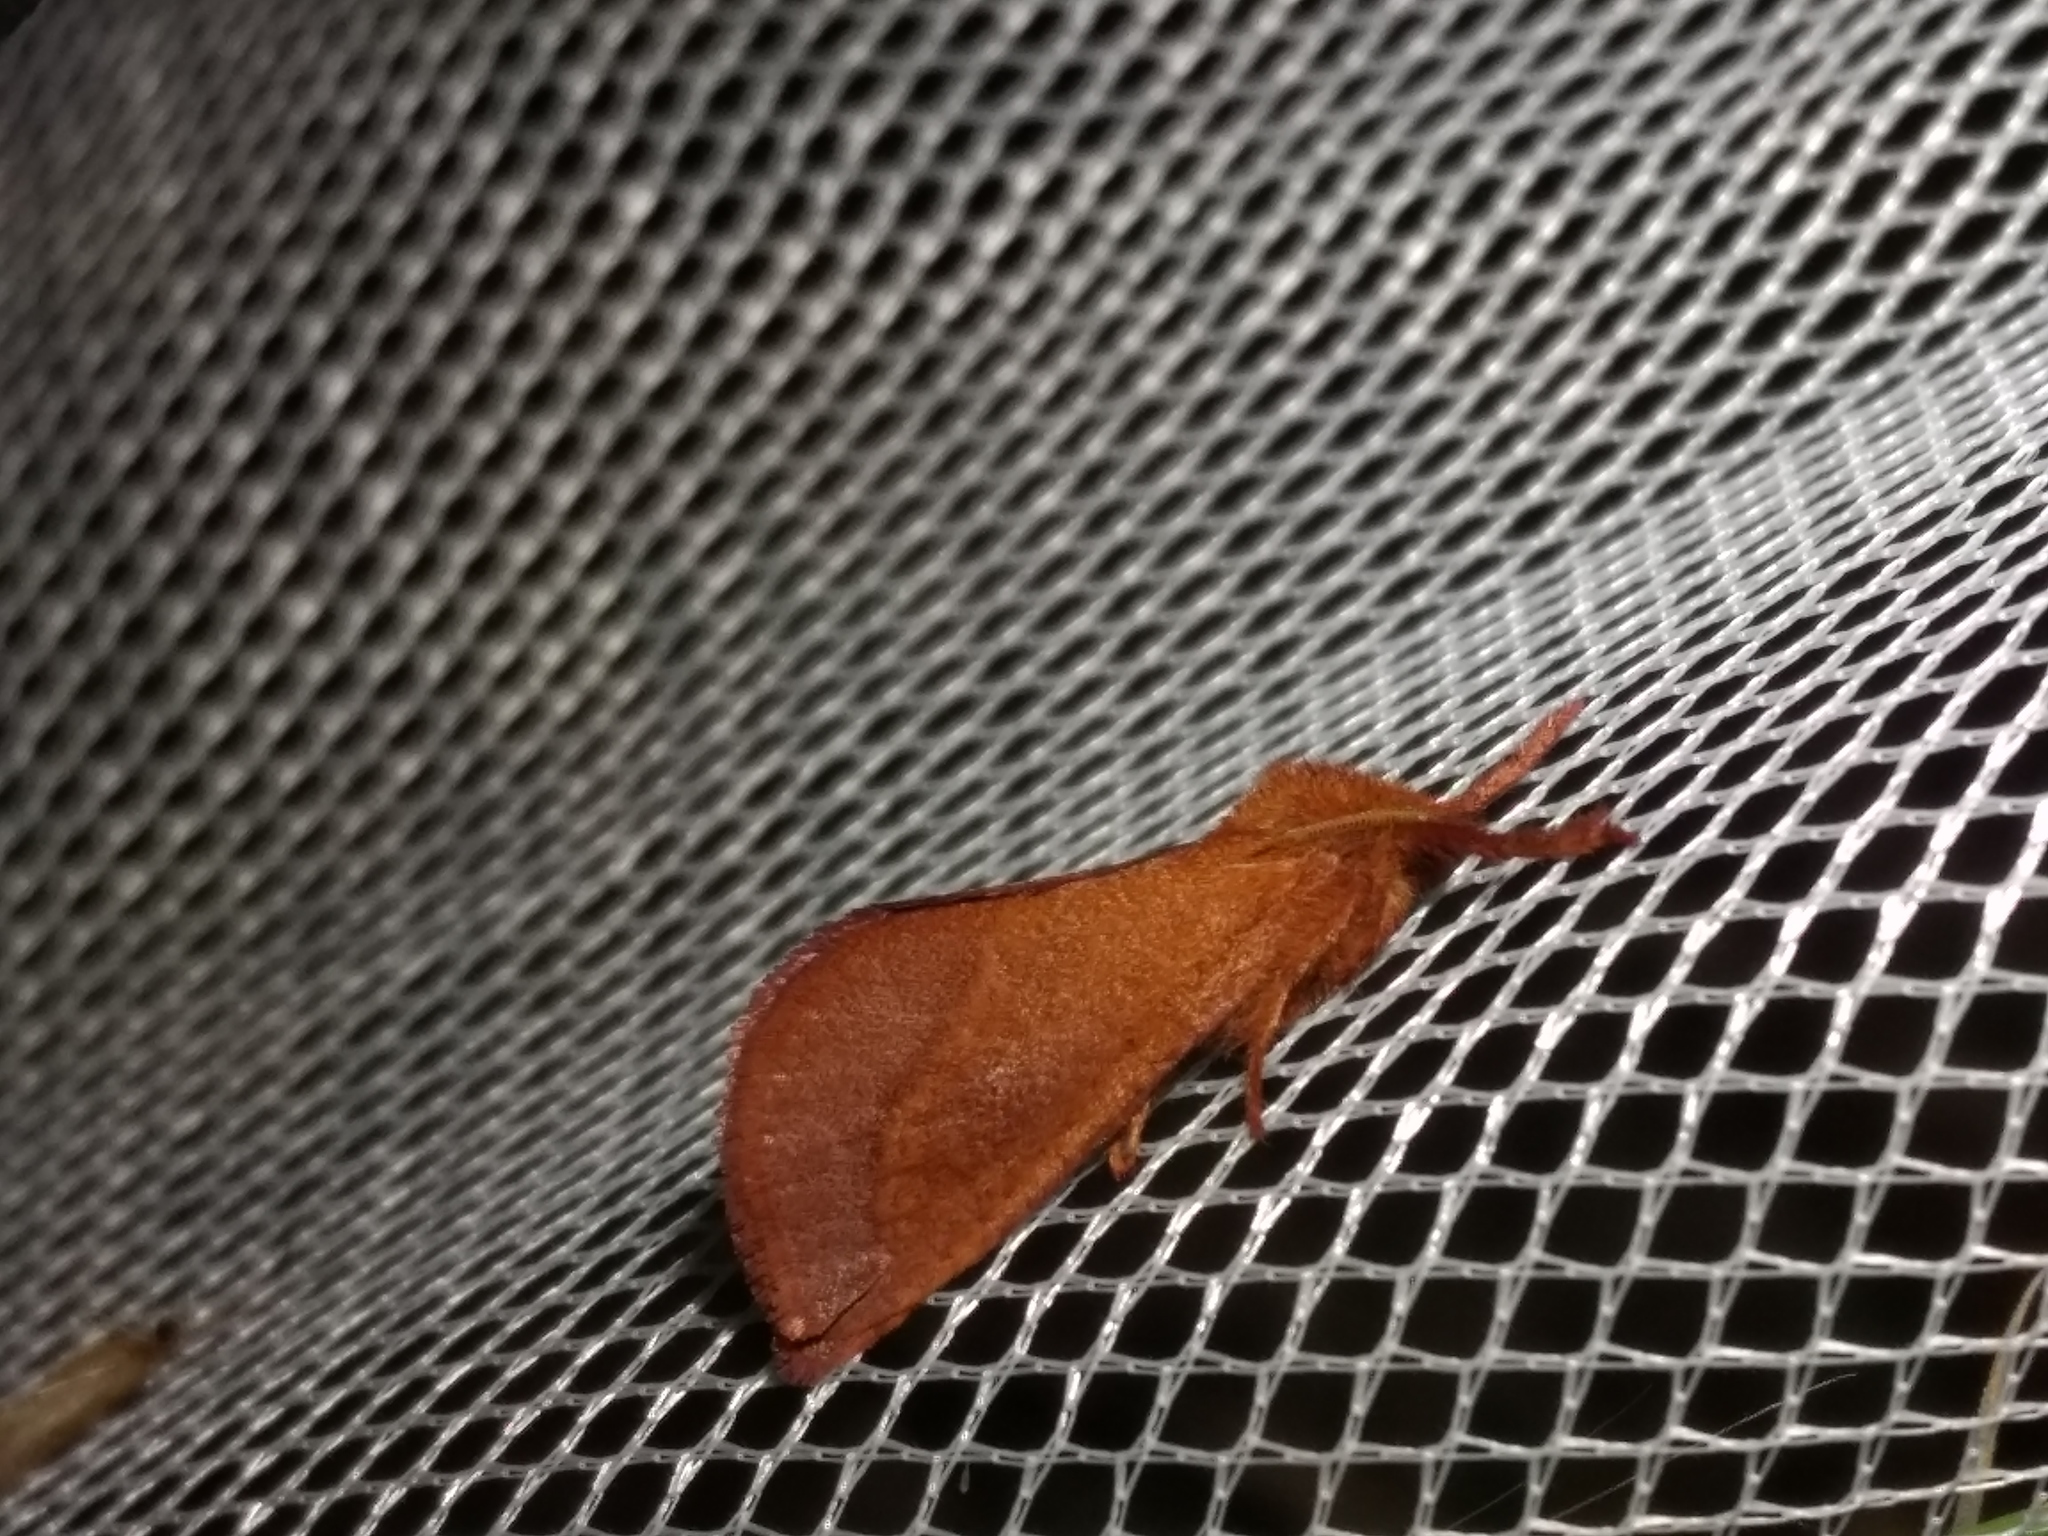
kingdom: Animalia
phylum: Arthropoda
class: Insecta
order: Lepidoptera
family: Hepialidae
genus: Fraus
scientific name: Fraus crocea
